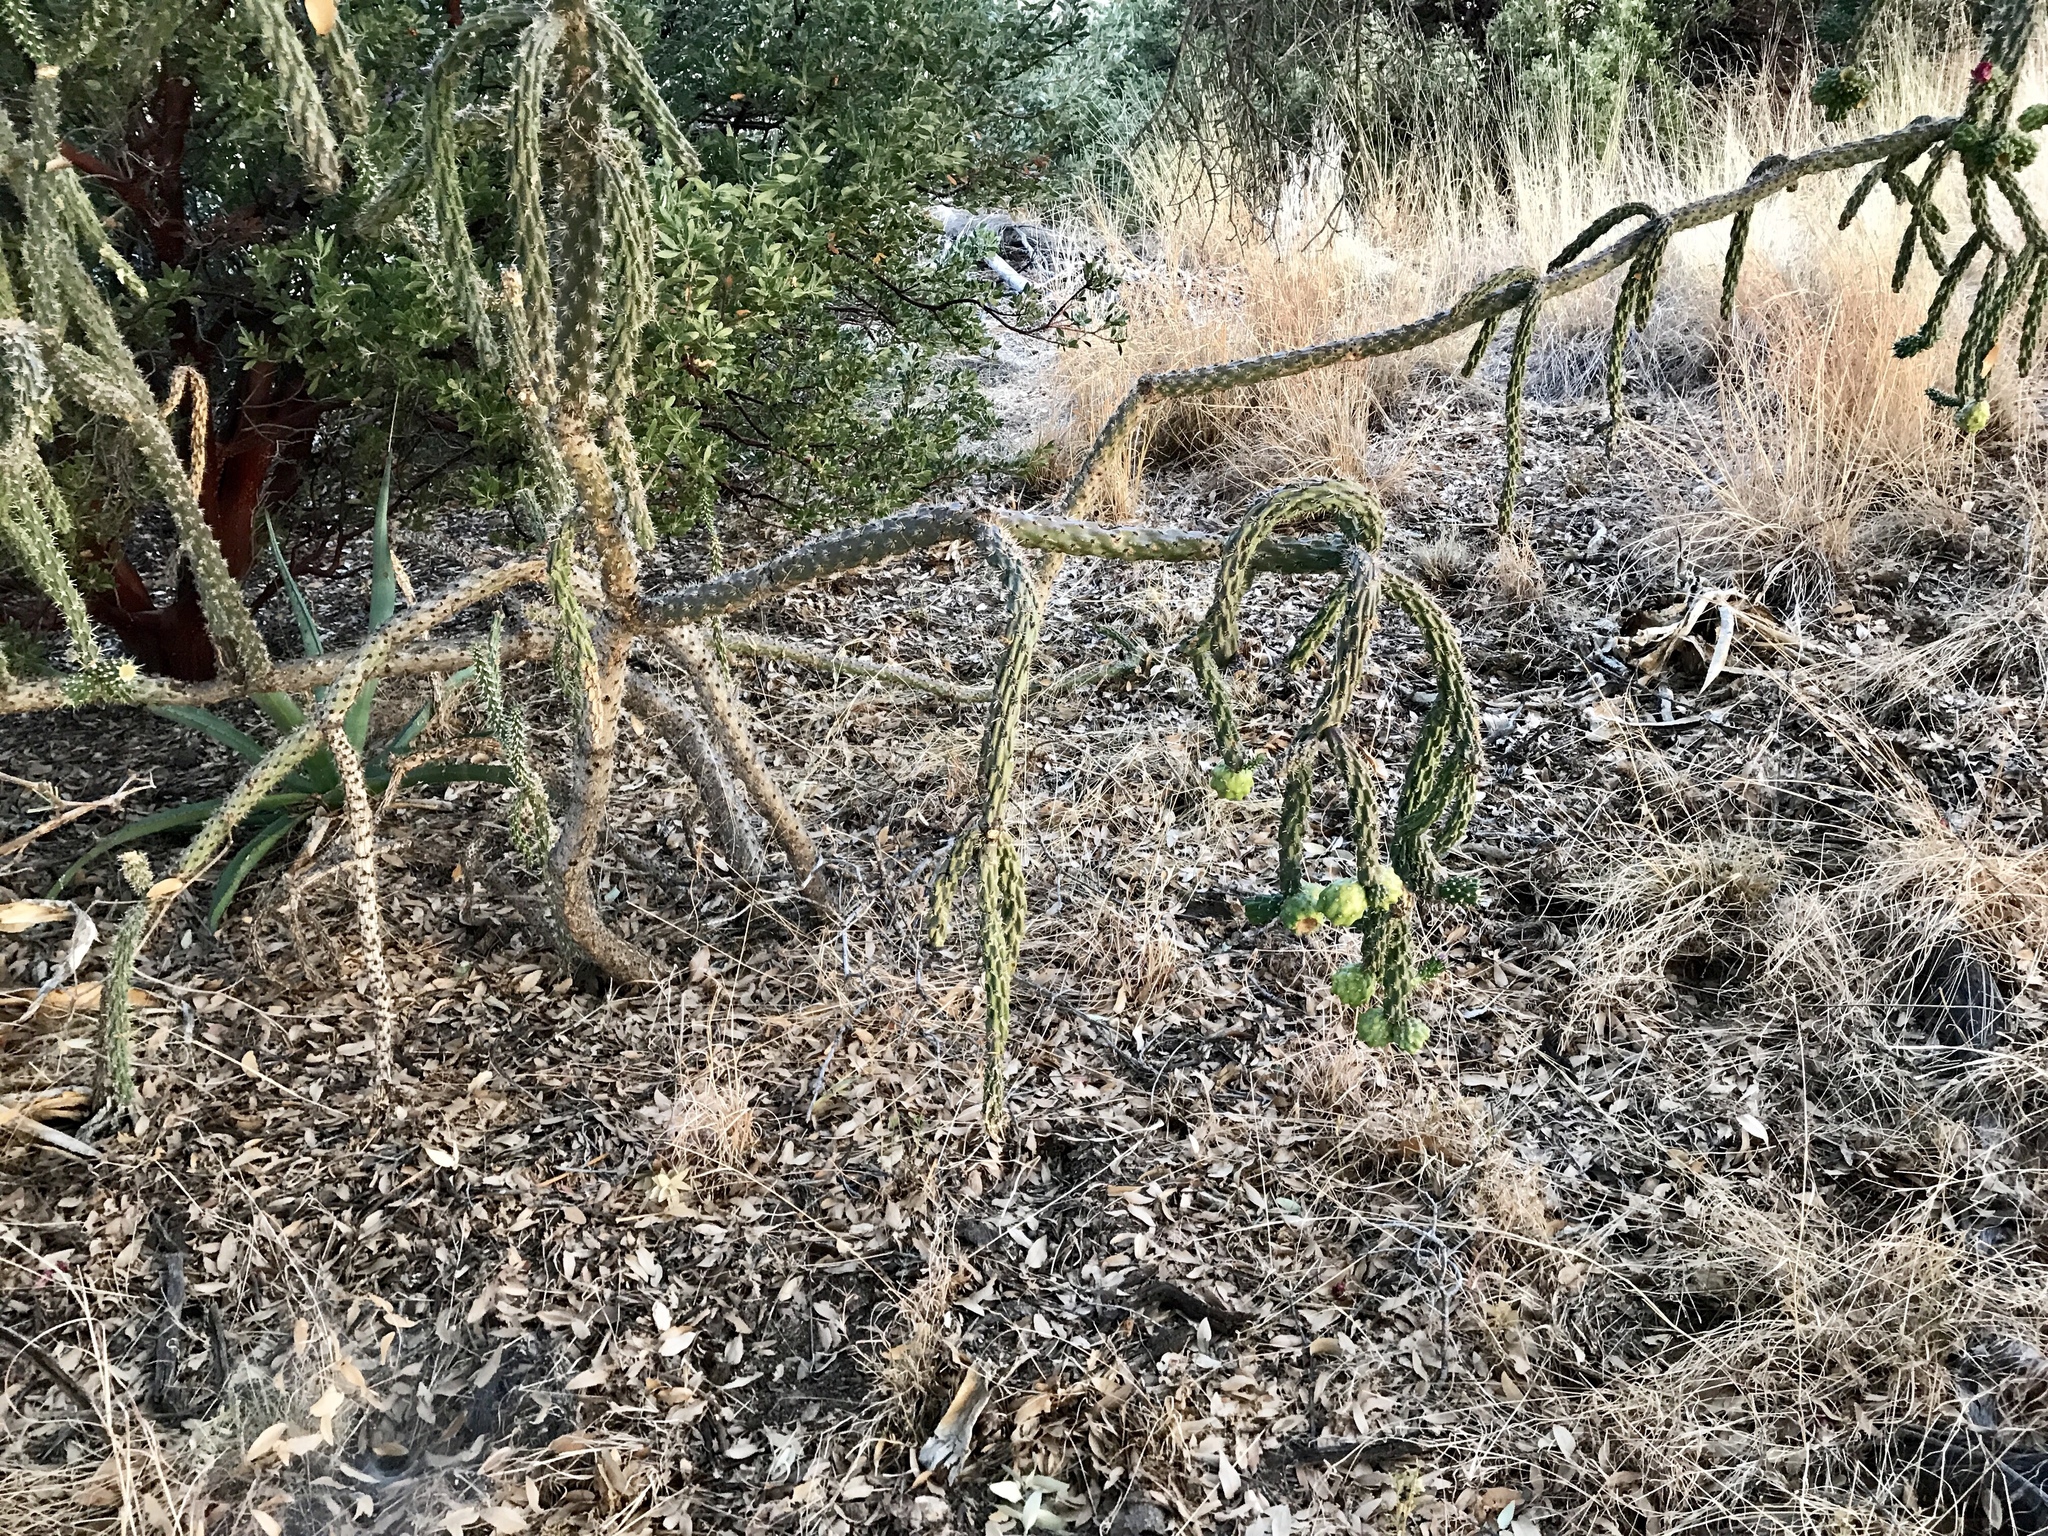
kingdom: Plantae
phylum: Tracheophyta
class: Magnoliopsida
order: Caryophyllales
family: Cactaceae
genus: Cylindropuntia
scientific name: Cylindropuntia imbricata
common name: Candelabrum cactus
